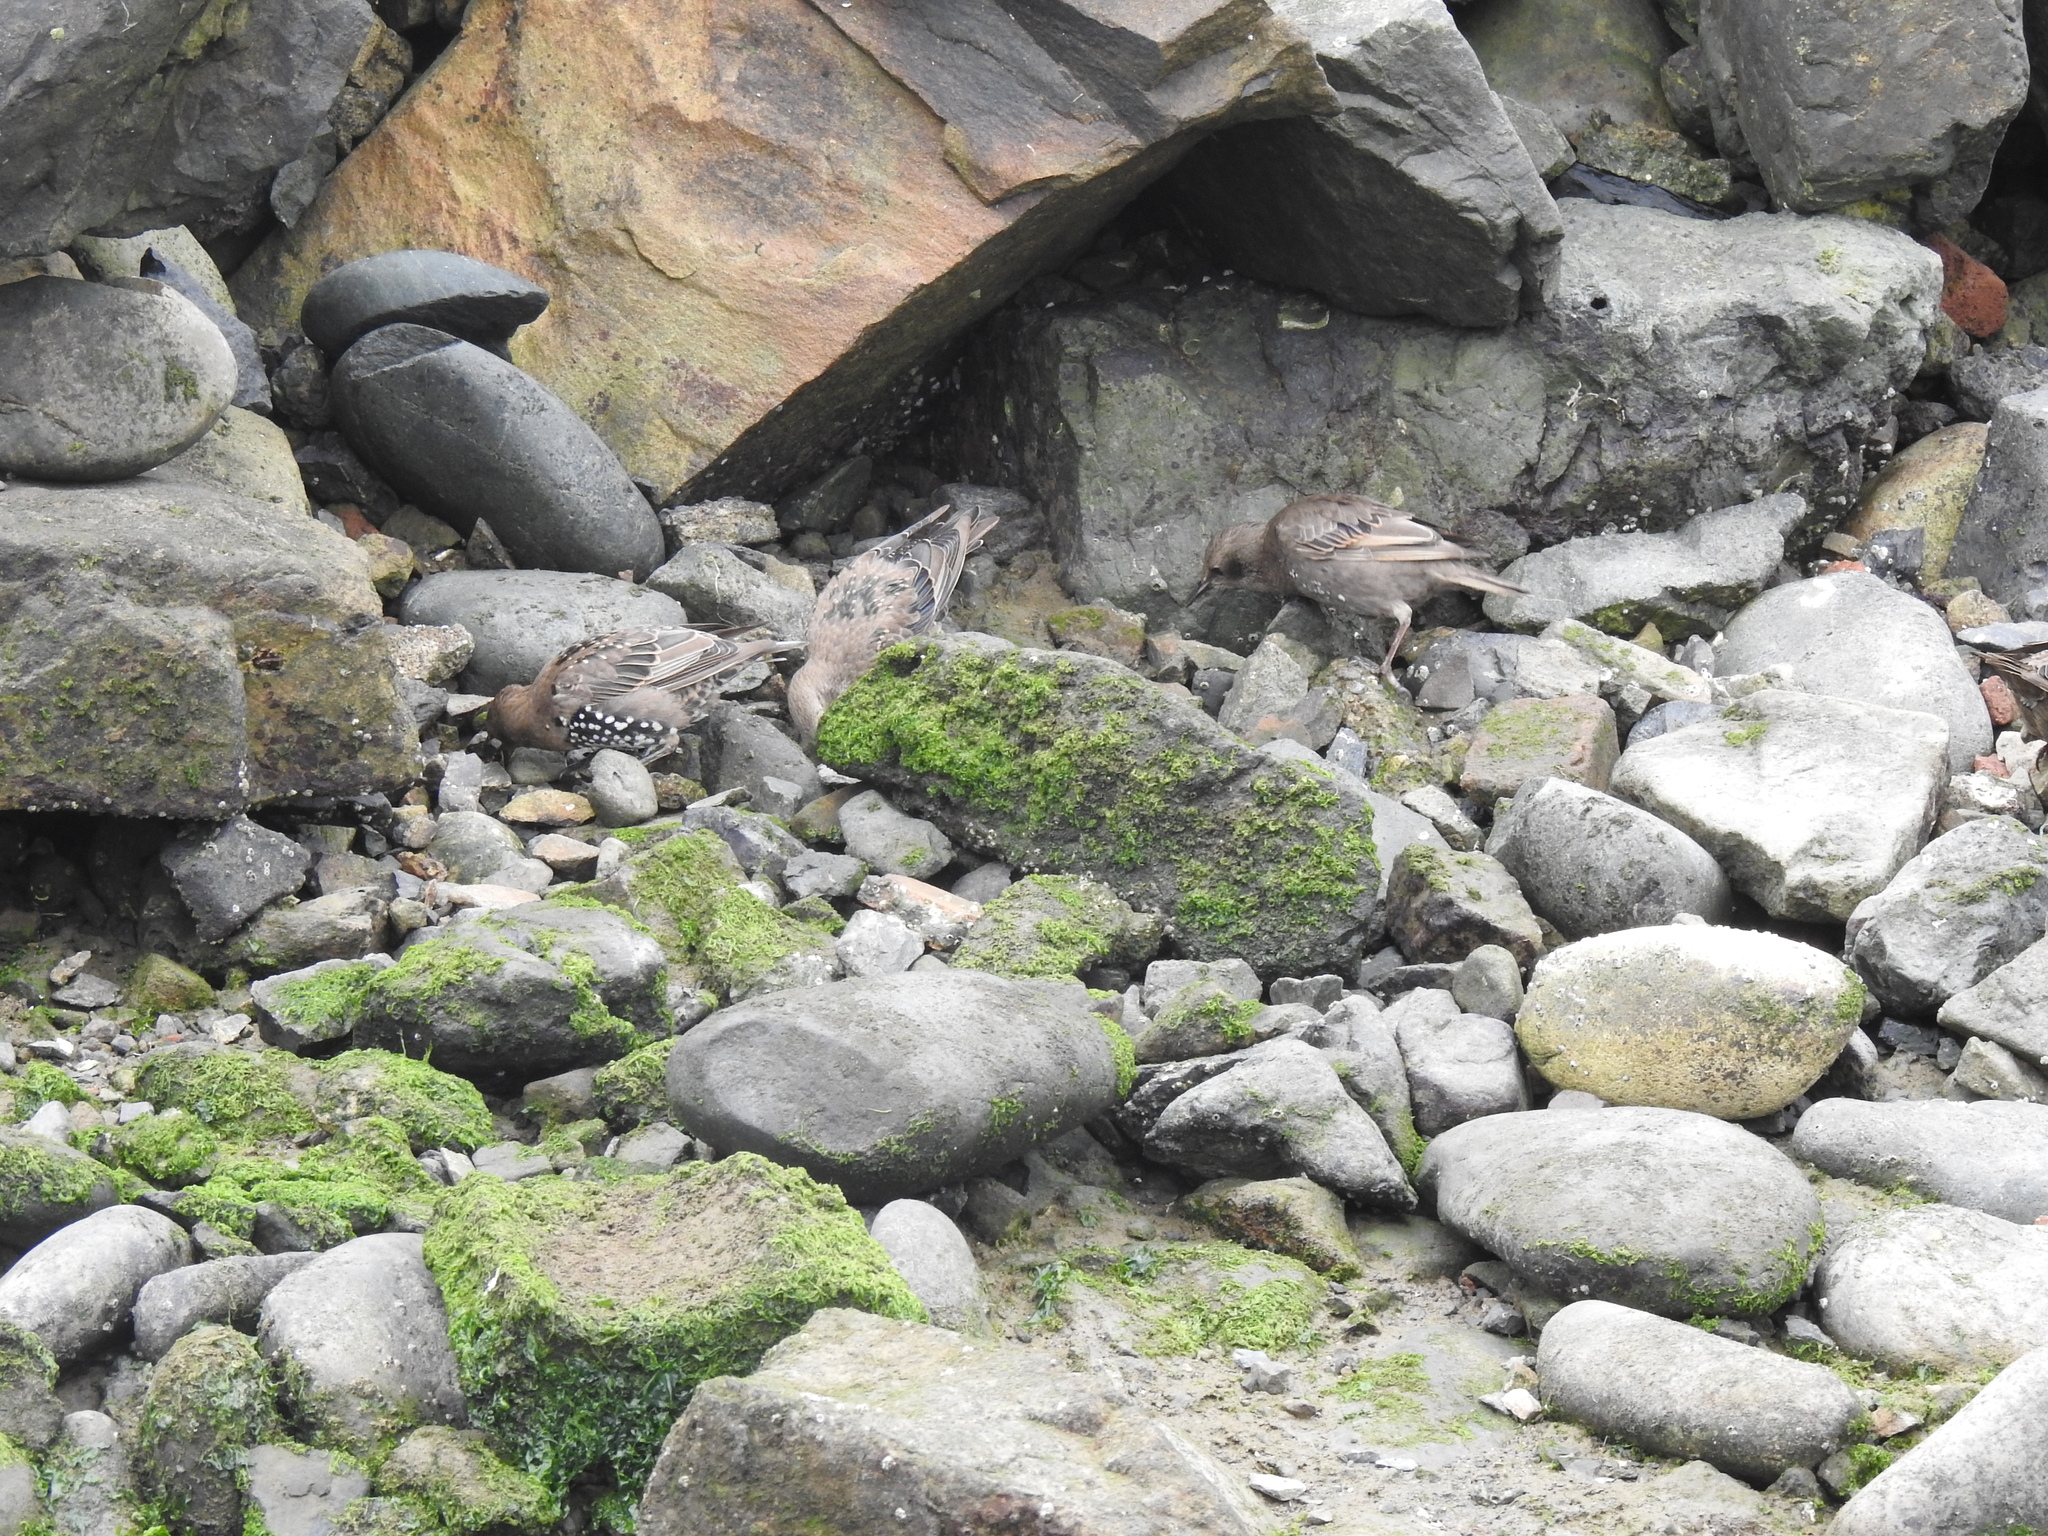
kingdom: Animalia
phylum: Chordata
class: Aves
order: Passeriformes
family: Sturnidae
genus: Sturnus
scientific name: Sturnus vulgaris
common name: Common starling
